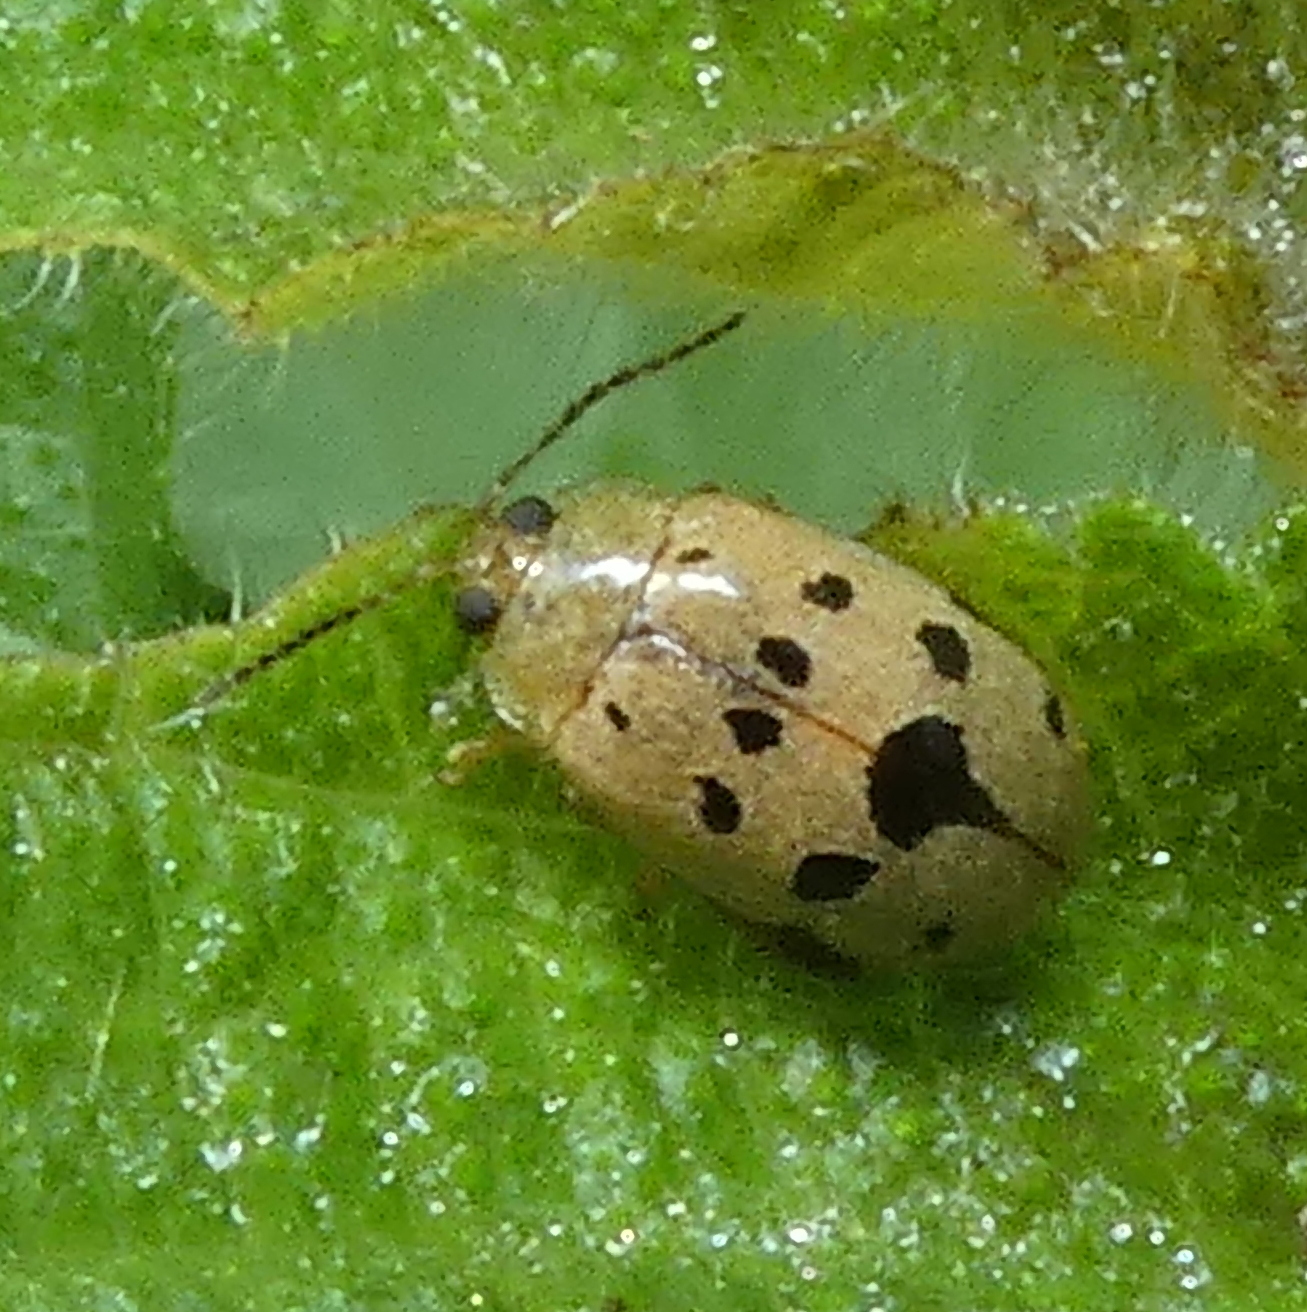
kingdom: Animalia
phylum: Arthropoda
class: Insecta
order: Coleoptera
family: Chrysomelidae
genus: Alagoasa
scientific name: Alagoasa
